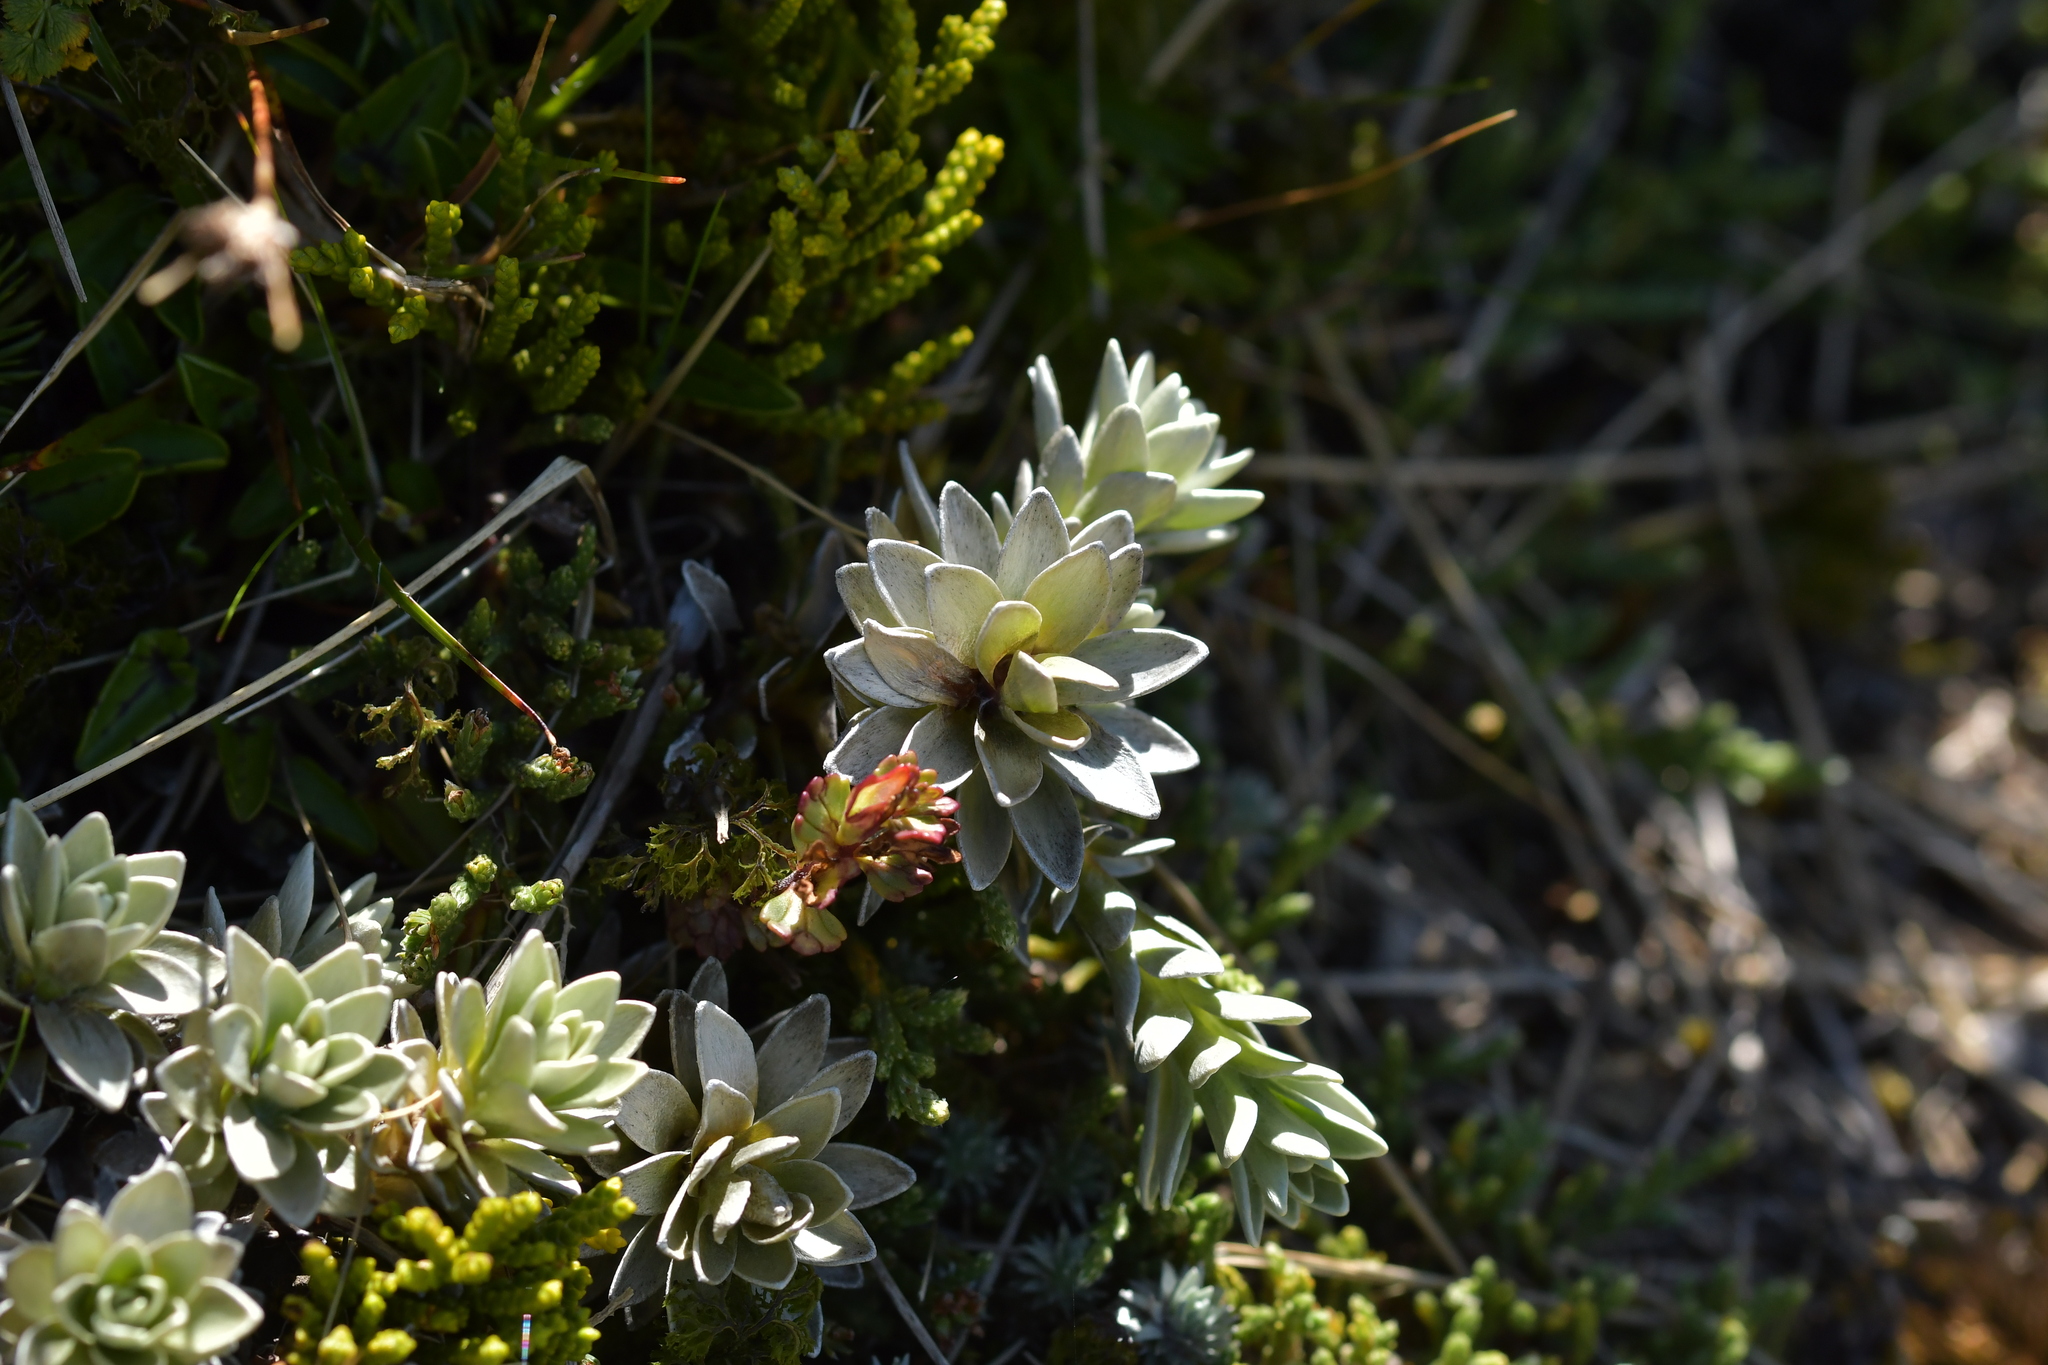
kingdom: Plantae
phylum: Tracheophyta
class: Magnoliopsida
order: Asterales
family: Asteraceae
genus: Leucogenes
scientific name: Leucogenes leontopodium
